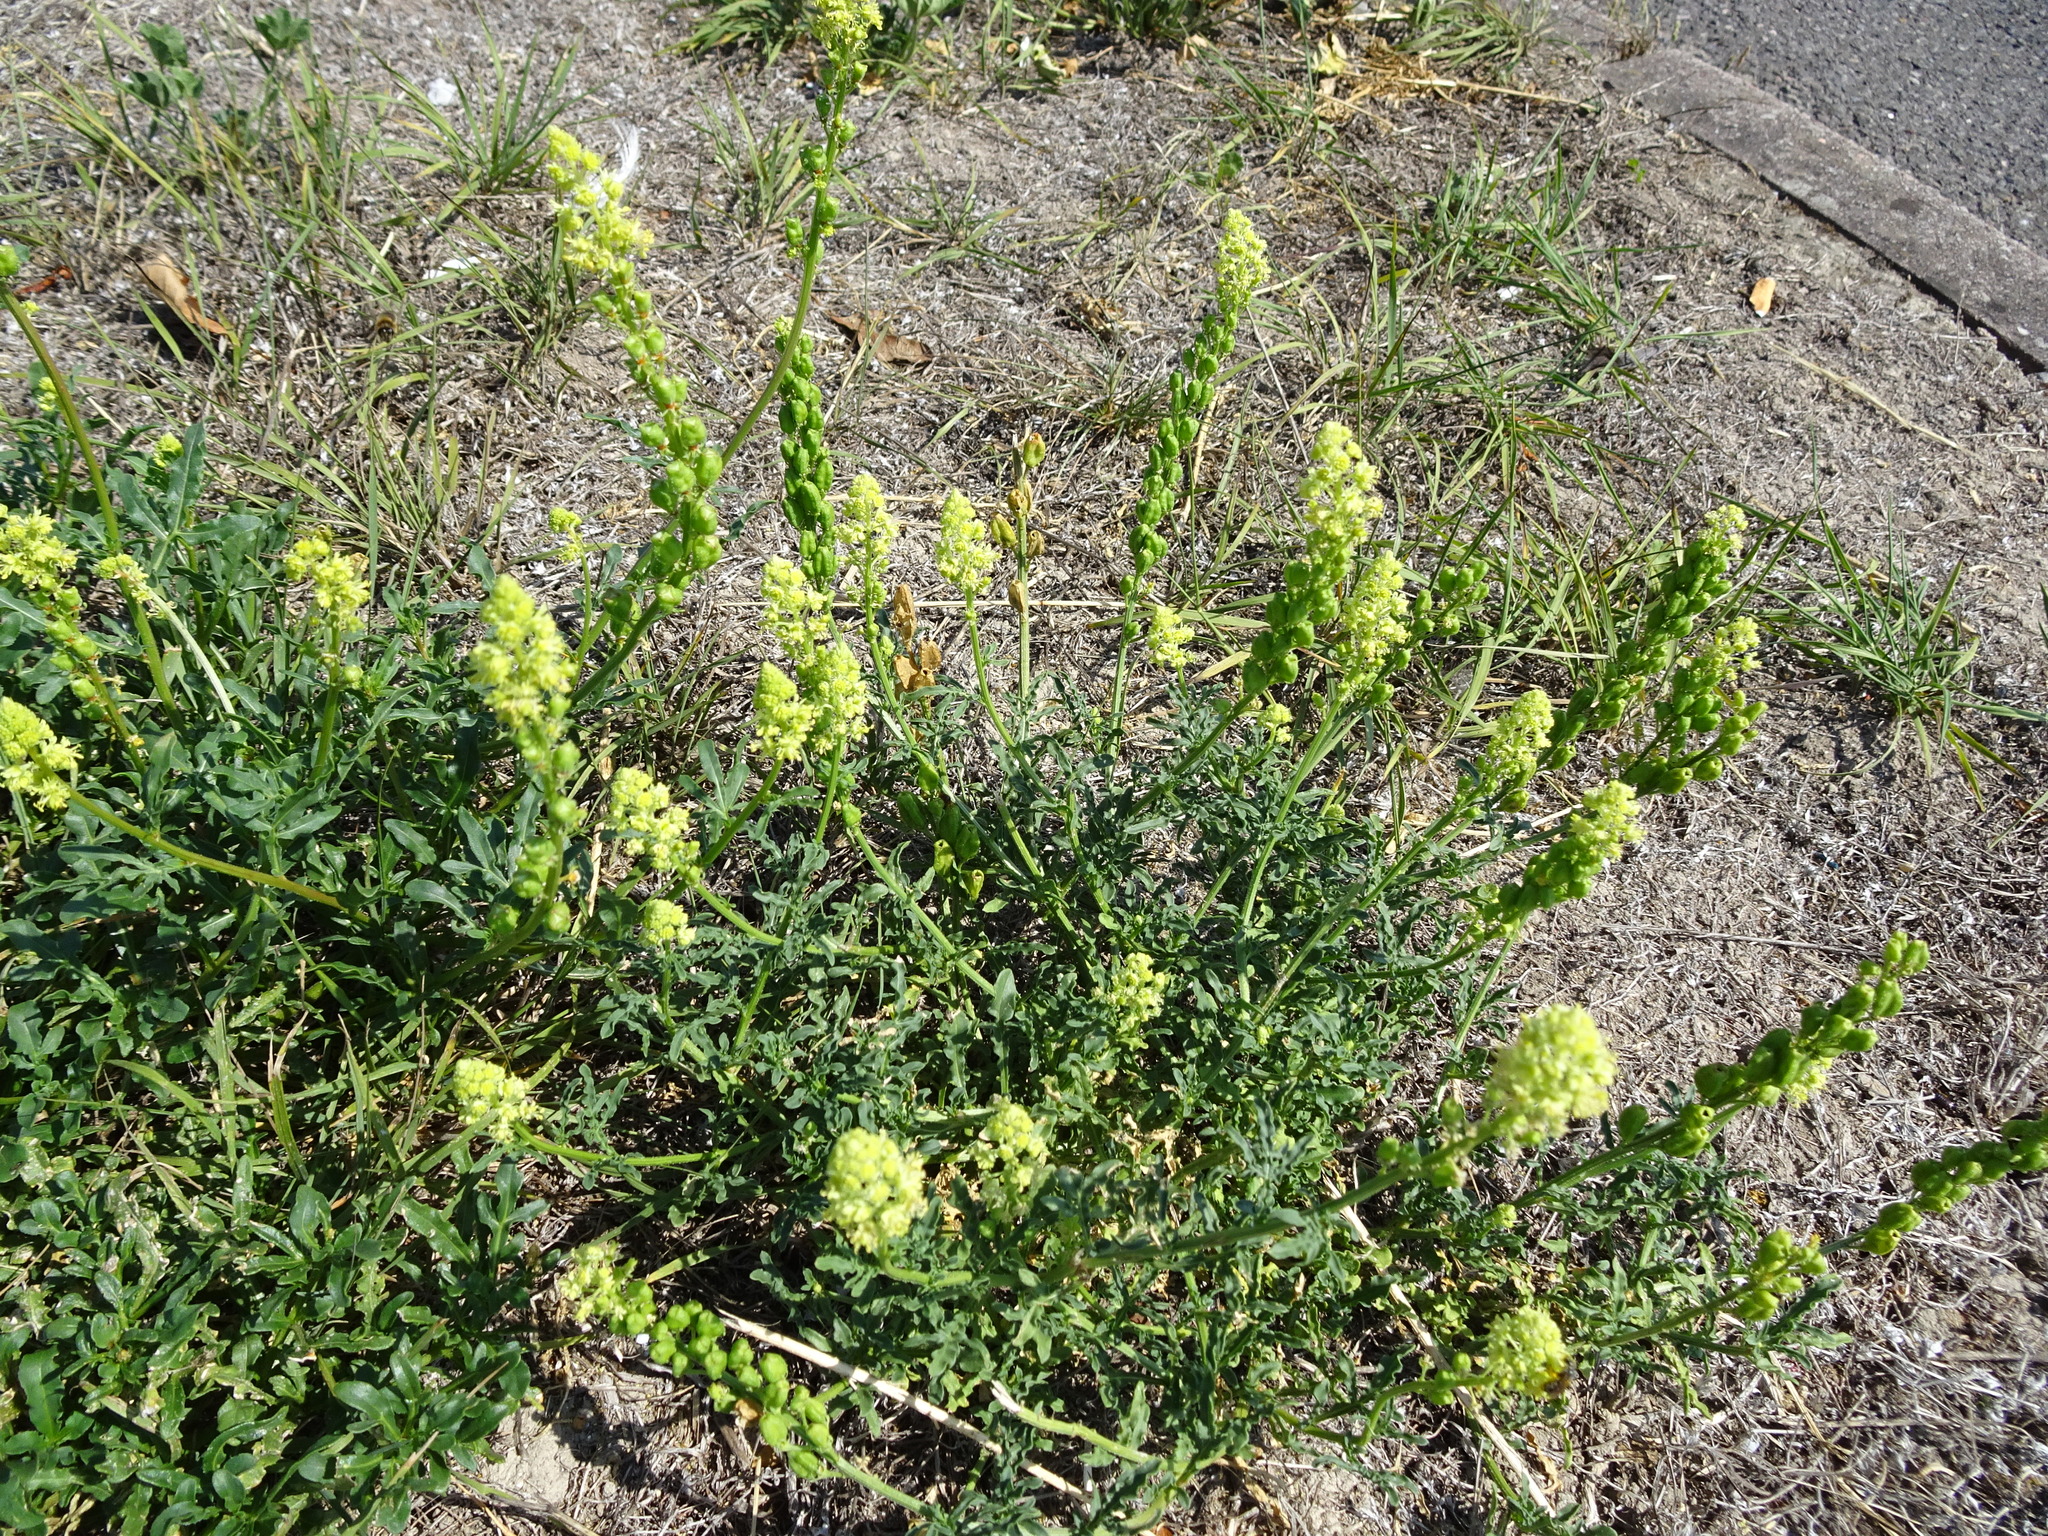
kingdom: Plantae
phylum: Tracheophyta
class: Magnoliopsida
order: Brassicales
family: Resedaceae
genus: Reseda
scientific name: Reseda lutea
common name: Wild mignonette
